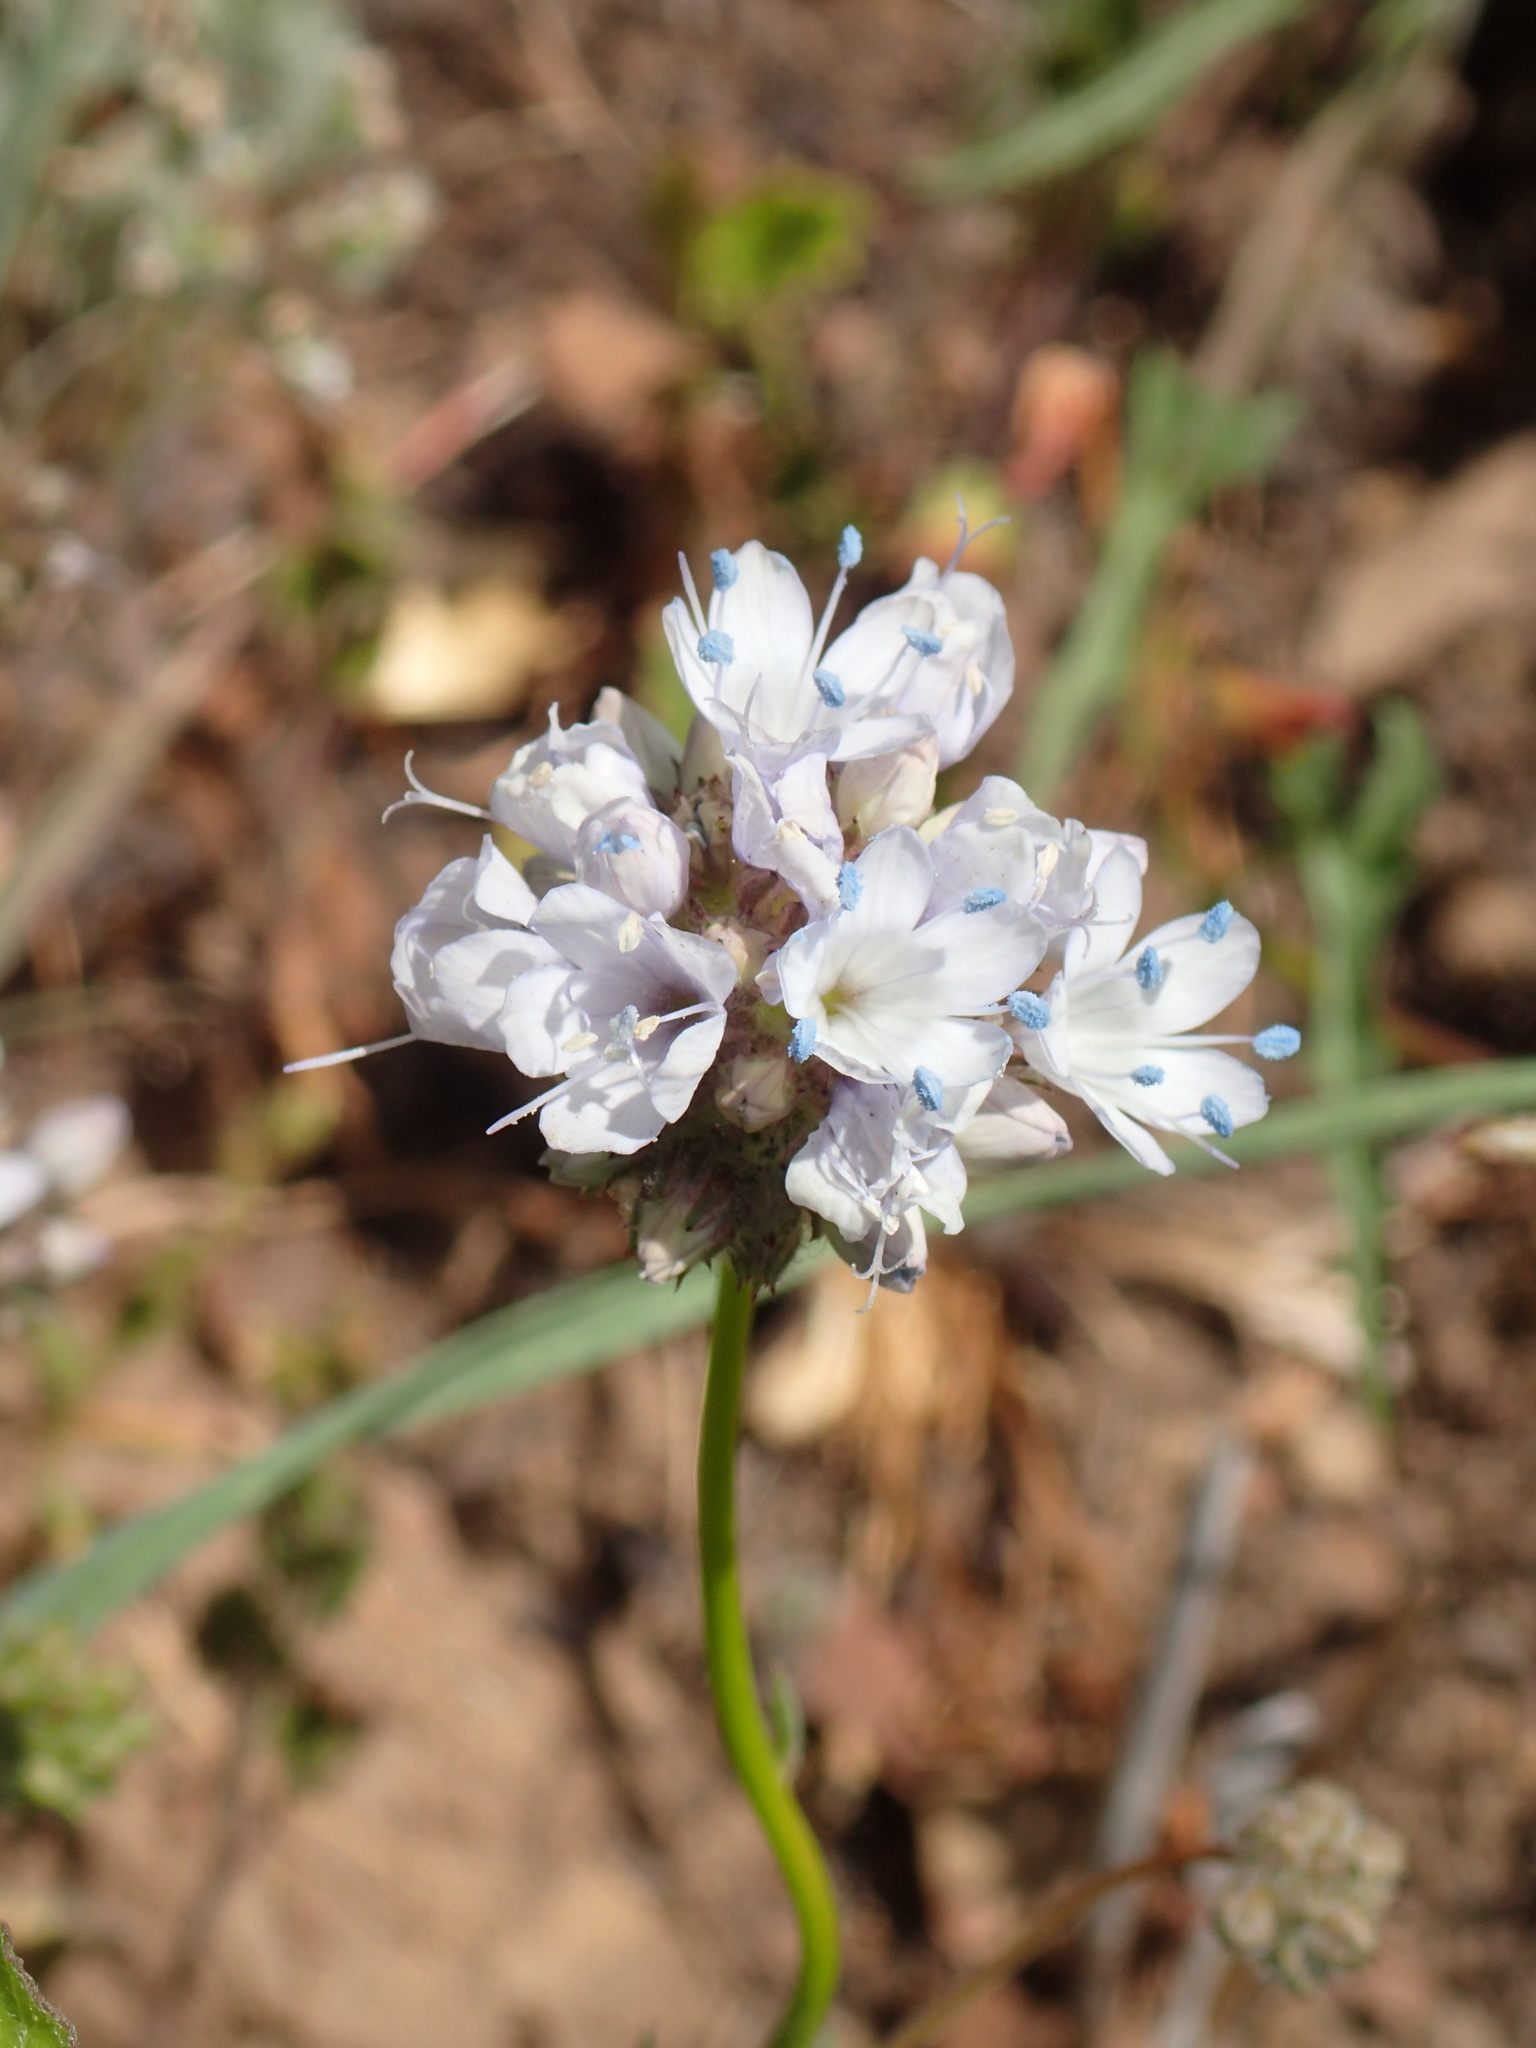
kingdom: Plantae
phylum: Tracheophyta
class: Magnoliopsida
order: Ericales
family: Polemoniaceae
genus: Gilia
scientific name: Gilia capitata
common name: Bluehead gilia
